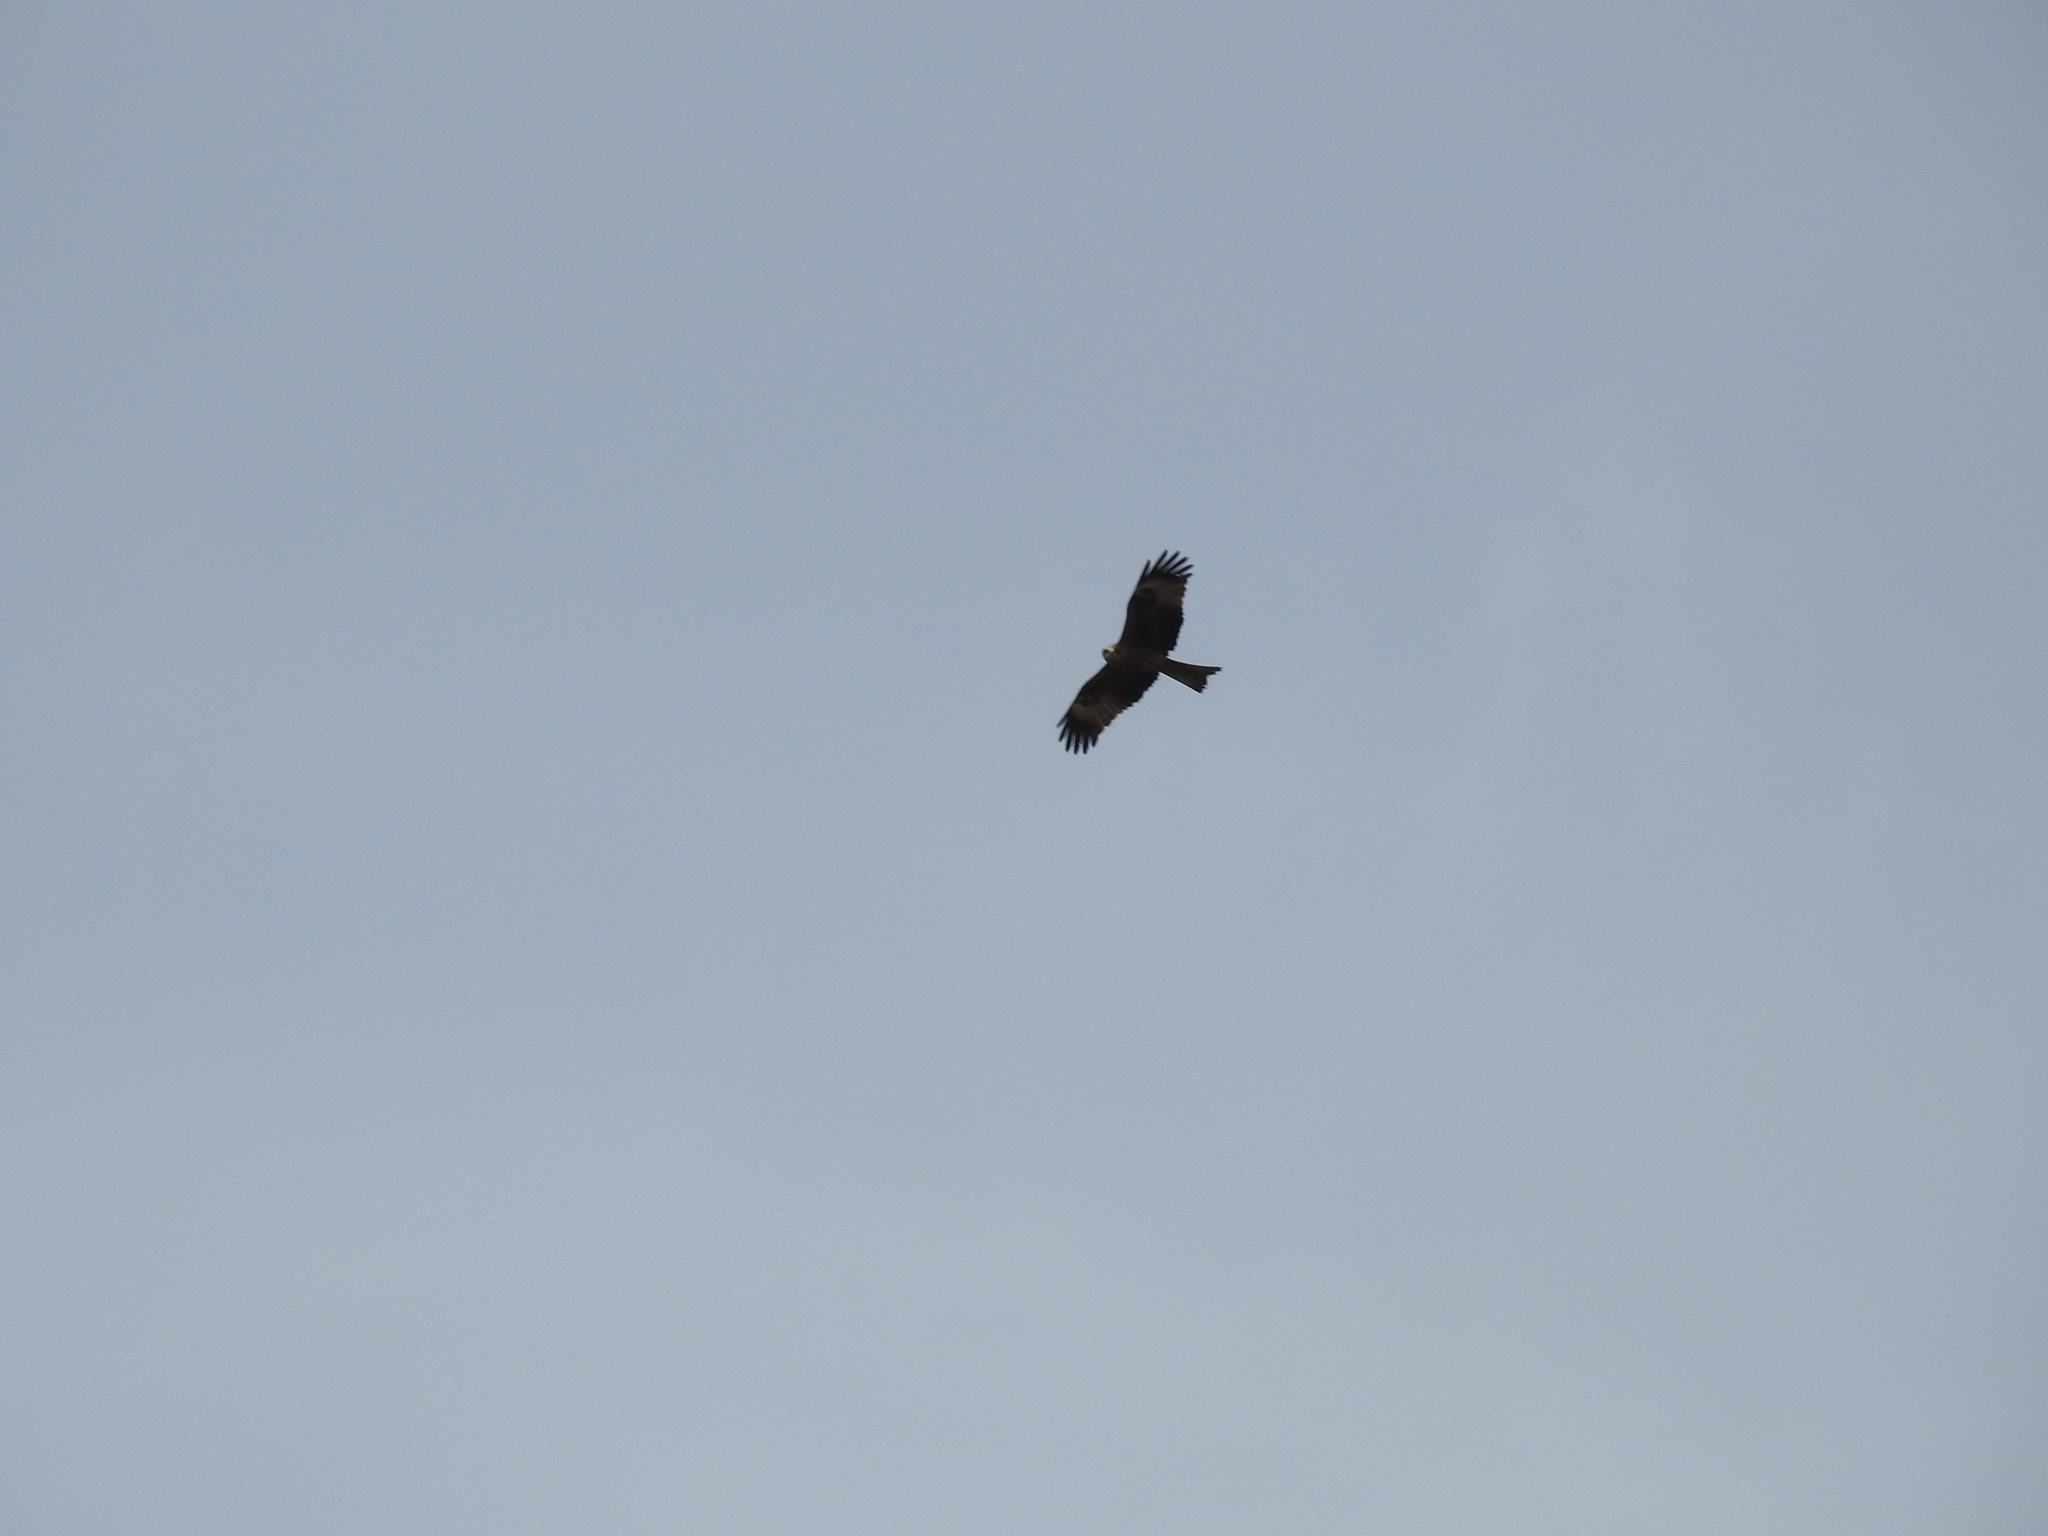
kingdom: Animalia
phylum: Chordata
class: Aves
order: Accipitriformes
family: Accipitridae
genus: Milvus
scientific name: Milvus migrans
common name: Black kite
